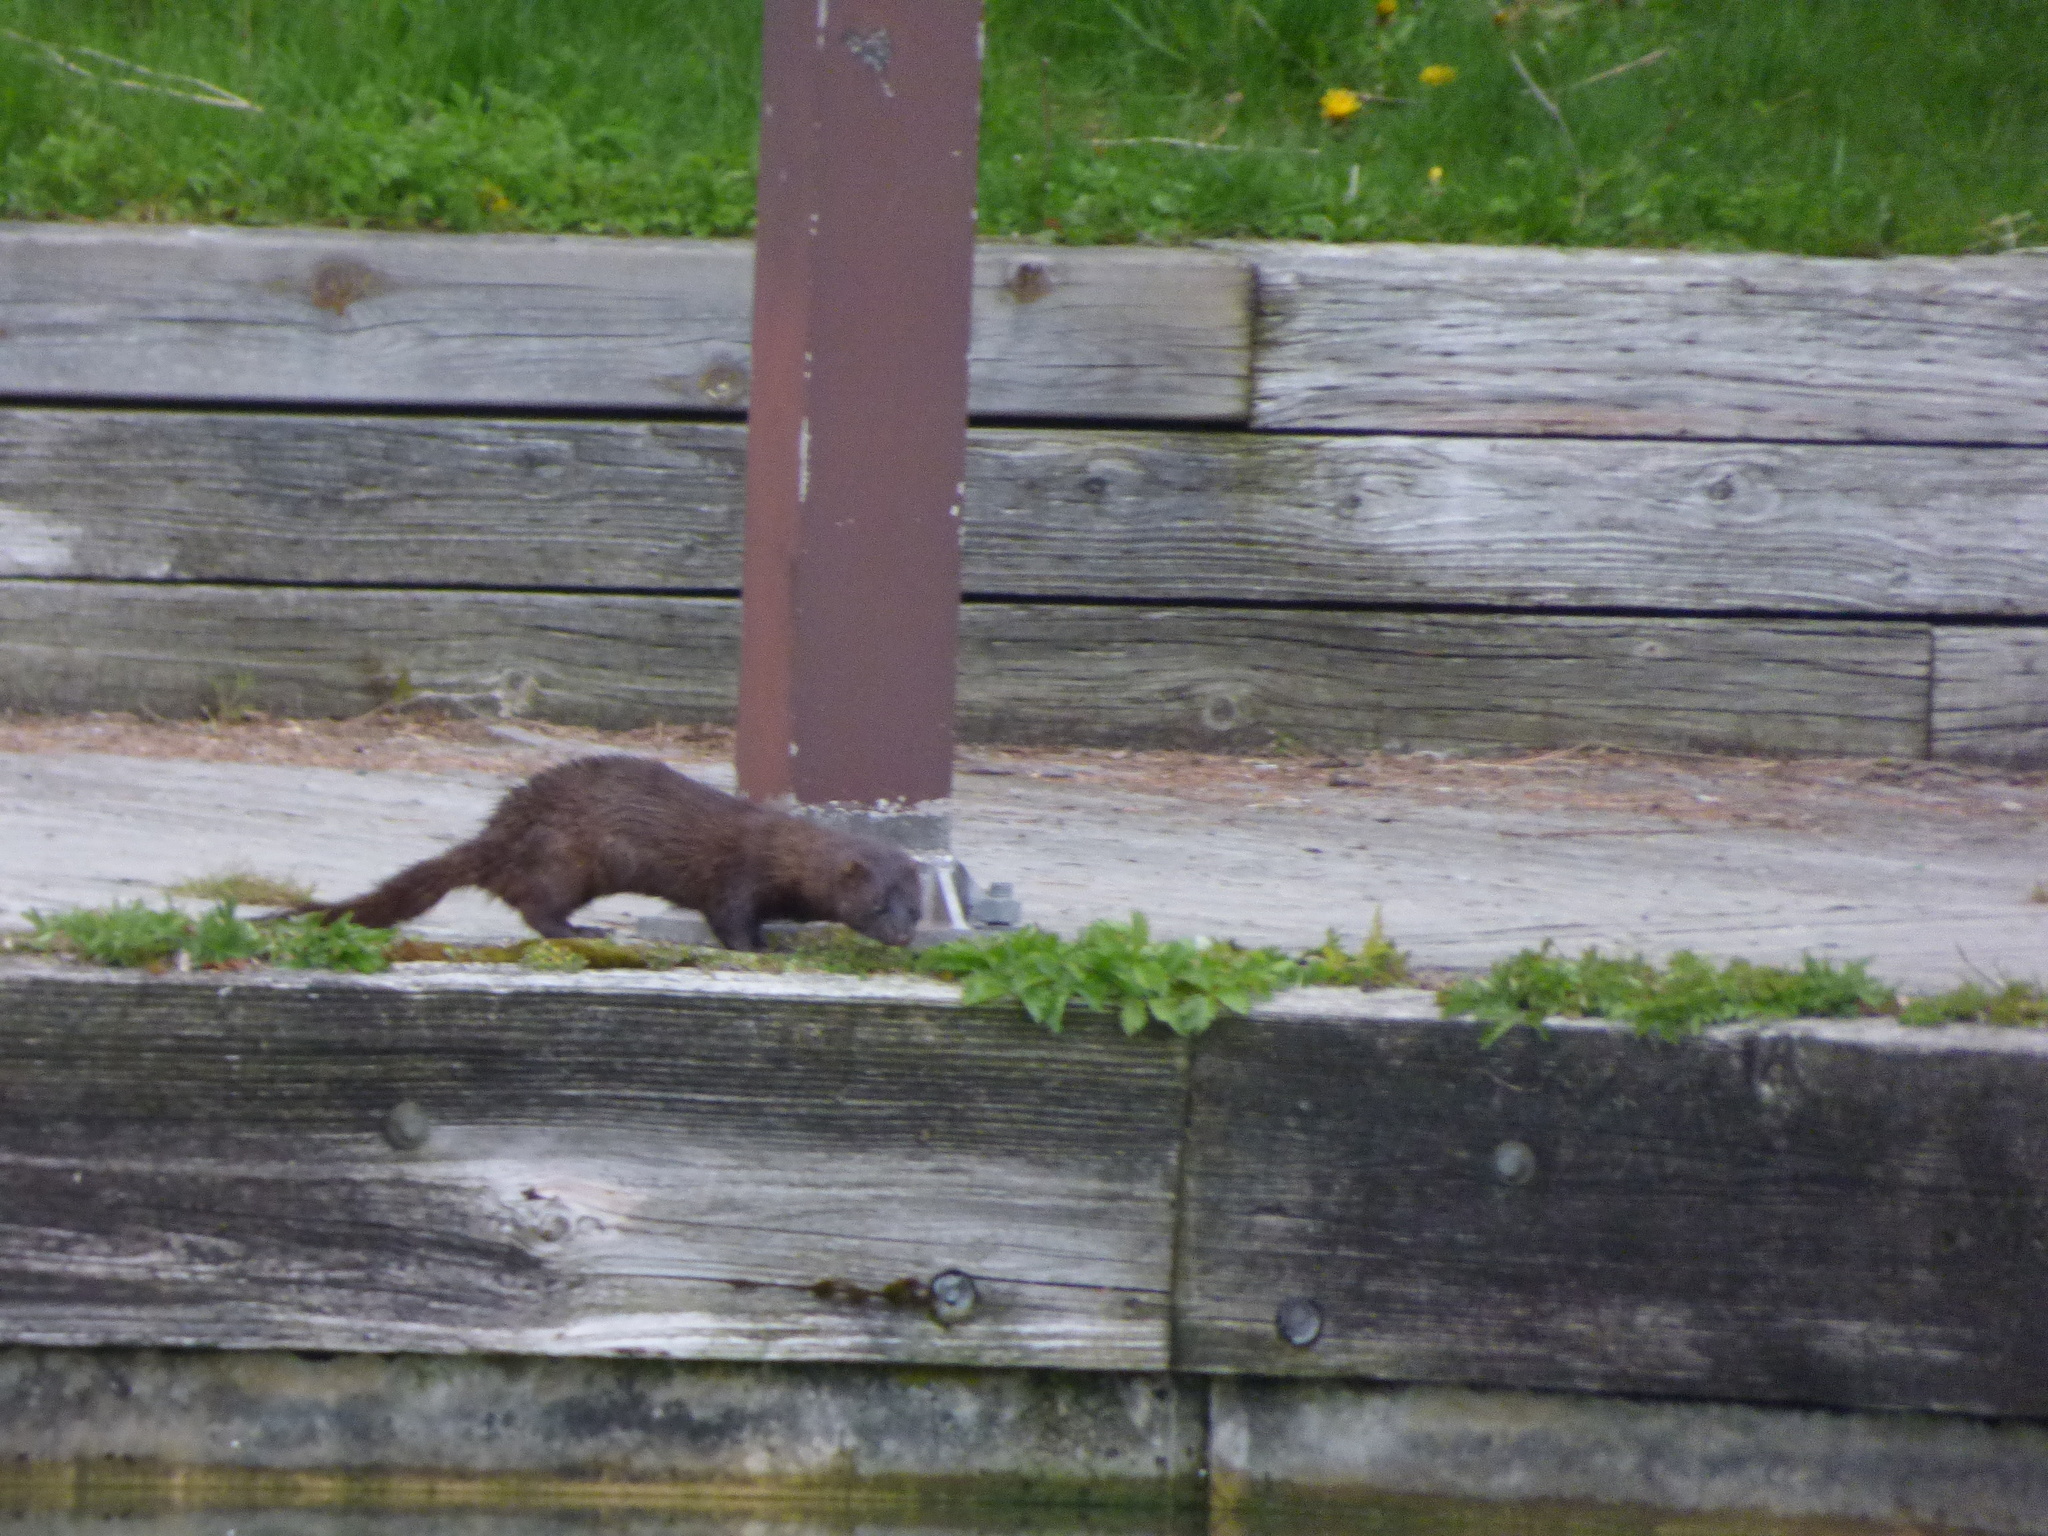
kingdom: Animalia
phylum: Chordata
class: Mammalia
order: Carnivora
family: Mustelidae
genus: Mustela
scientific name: Mustela
